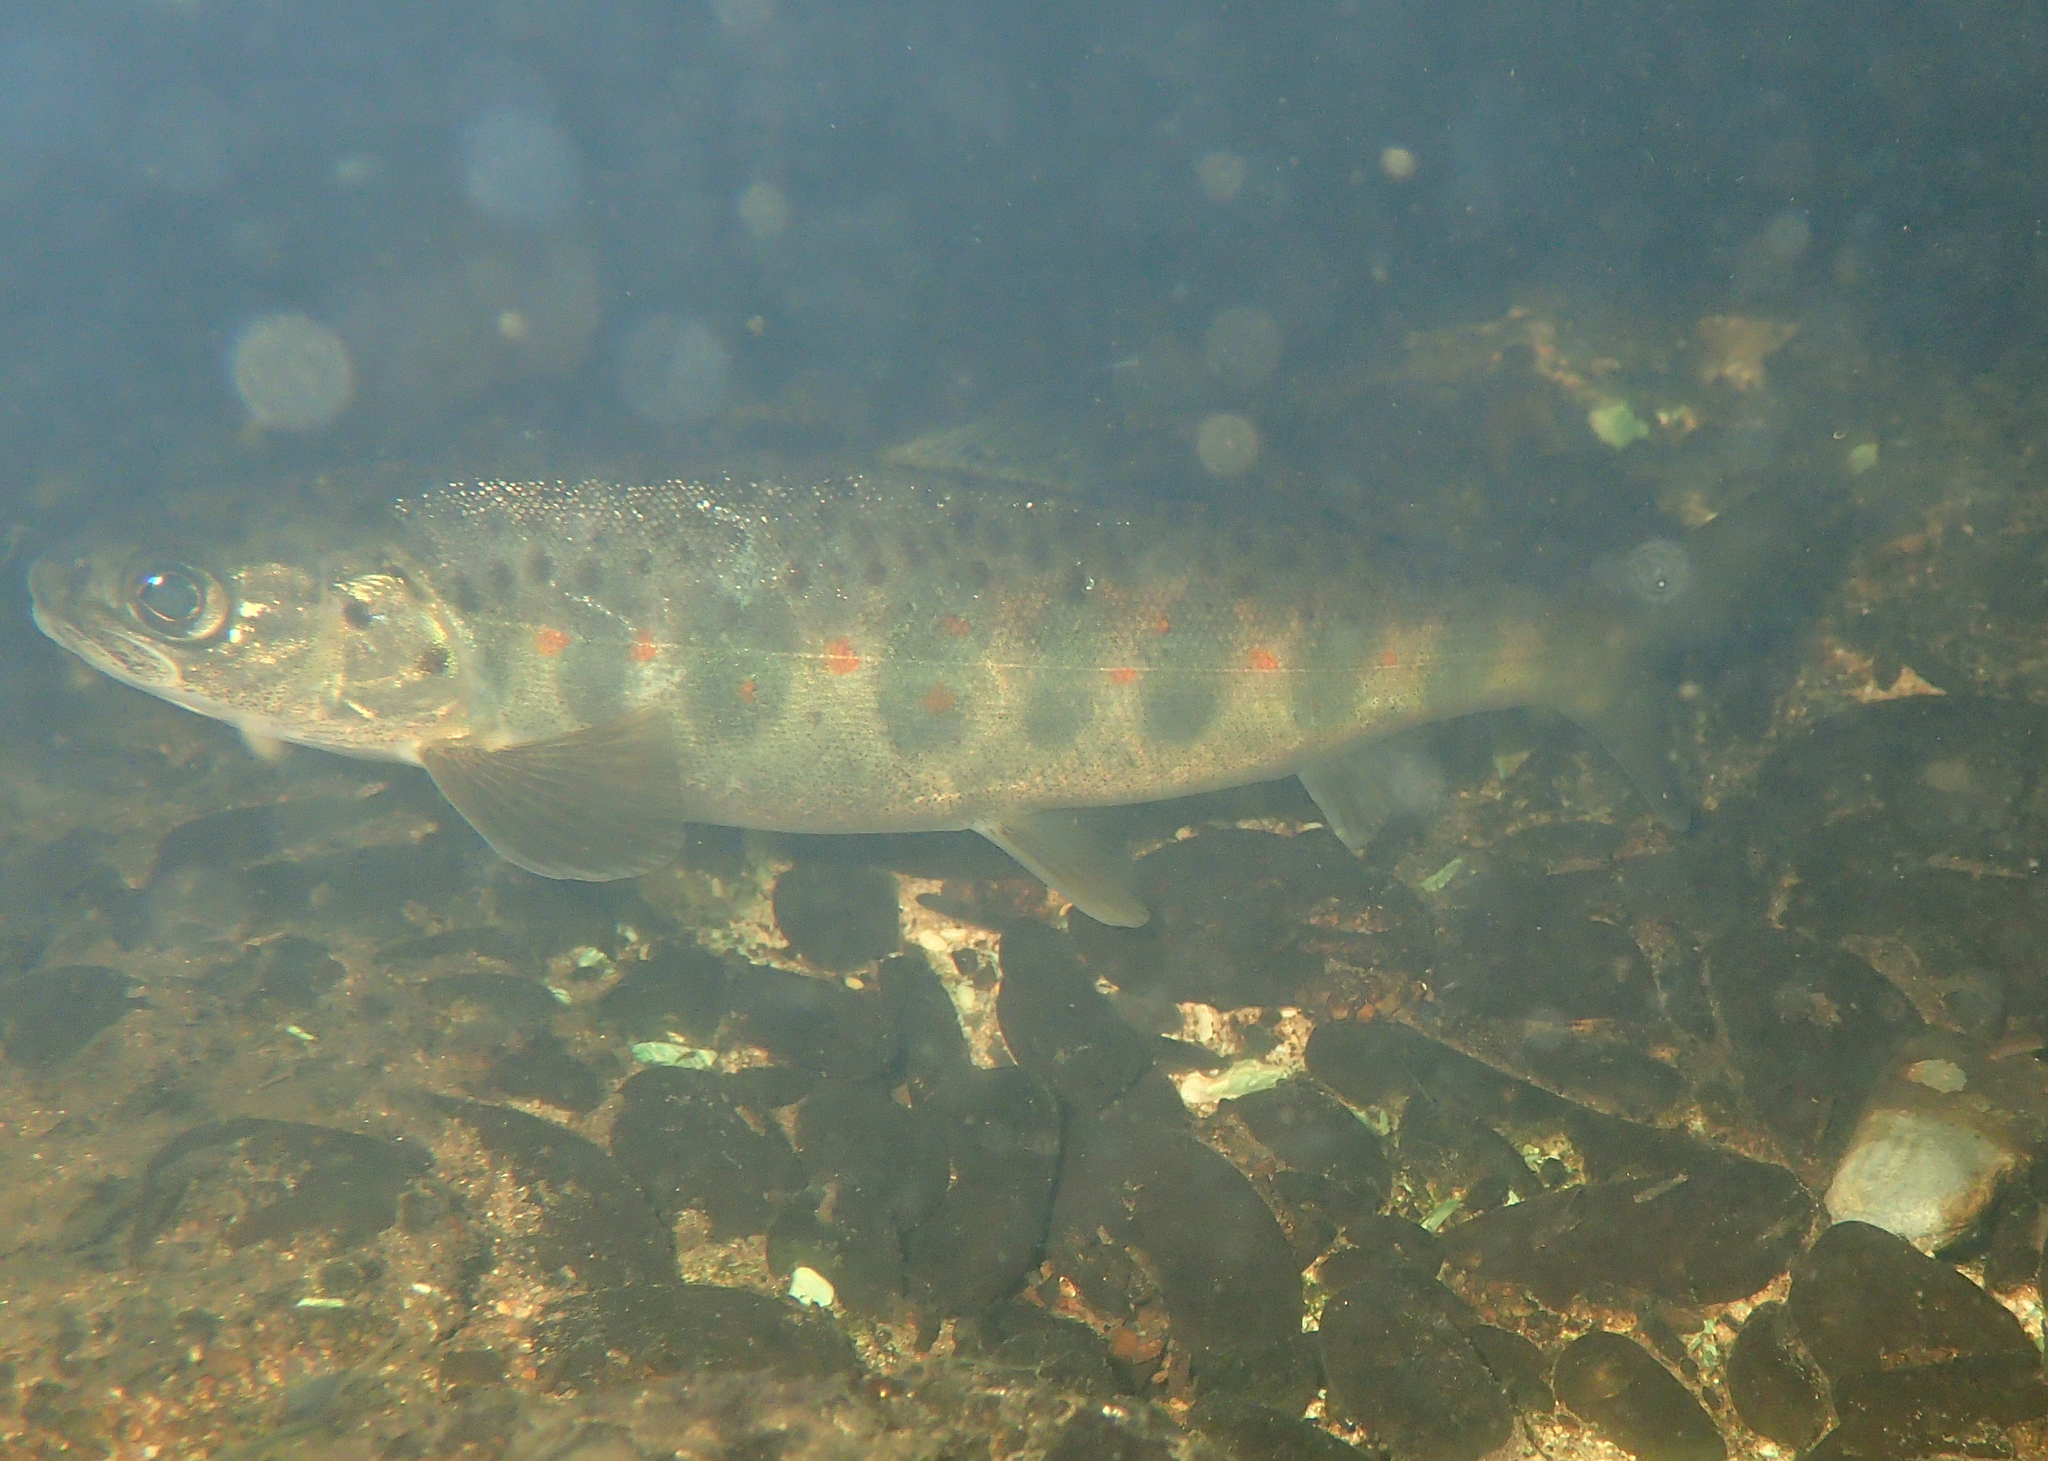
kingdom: Animalia
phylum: Chordata
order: Salmoniformes
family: Salmonidae
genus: Salmo
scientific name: Salmo salar
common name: Atlantic salmon
